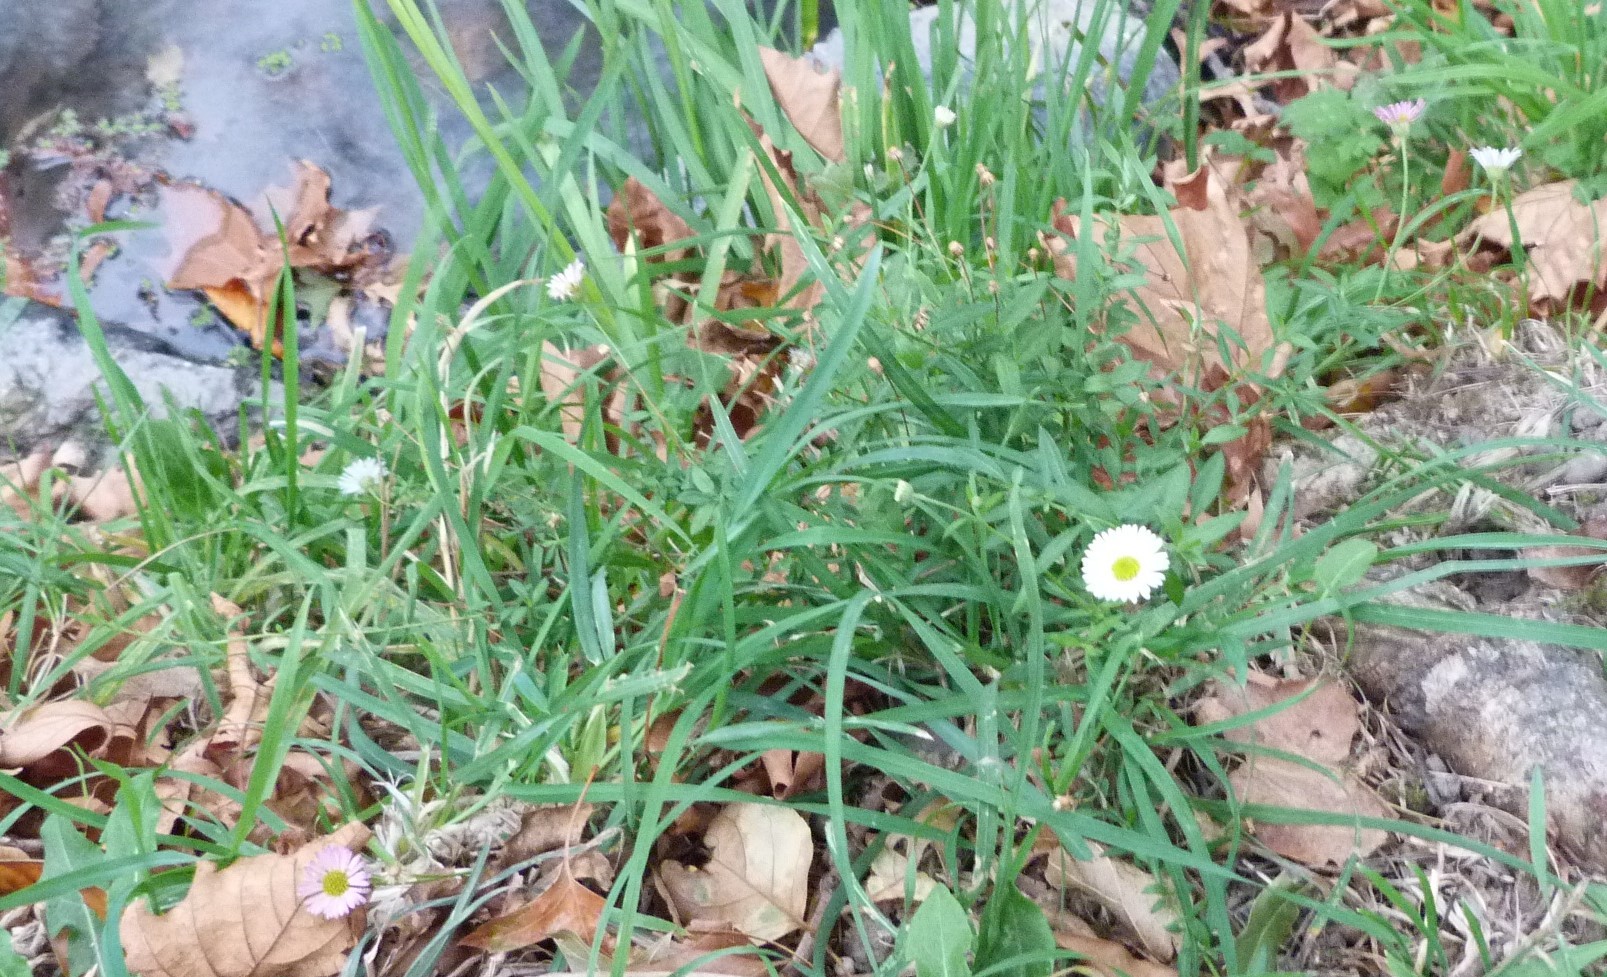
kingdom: Plantae
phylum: Tracheophyta
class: Magnoliopsida
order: Asterales
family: Asteraceae
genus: Erigeron
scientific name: Erigeron karvinskianus
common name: Mexican fleabane
